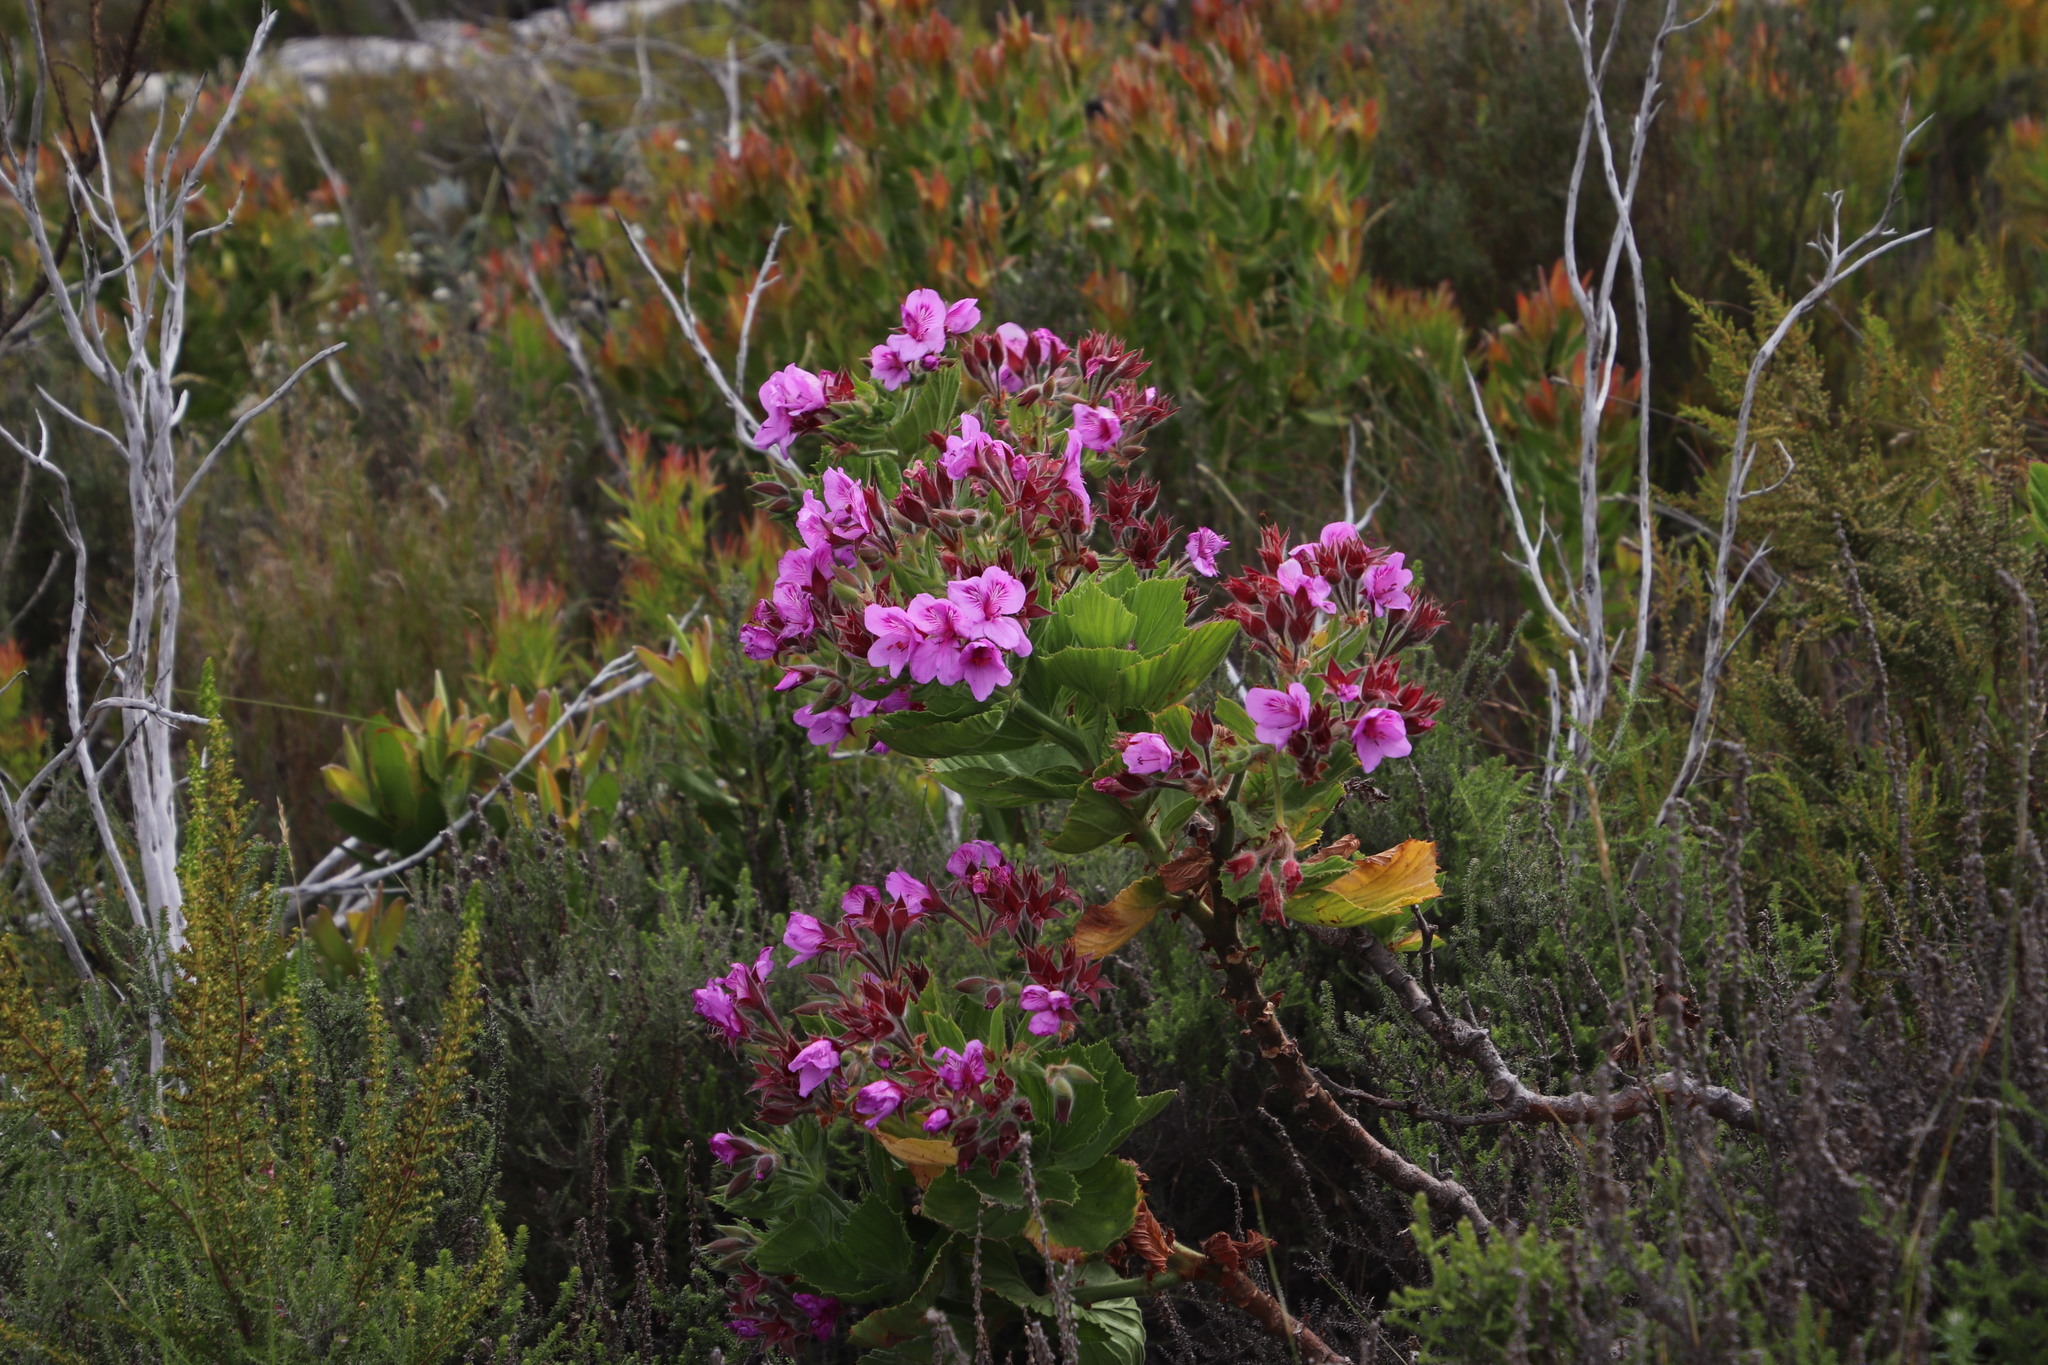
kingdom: Plantae
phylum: Tracheophyta
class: Magnoliopsida
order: Geraniales
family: Geraniaceae
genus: Pelargonium
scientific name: Pelargonium cucullatum
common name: Tree pelargonium
